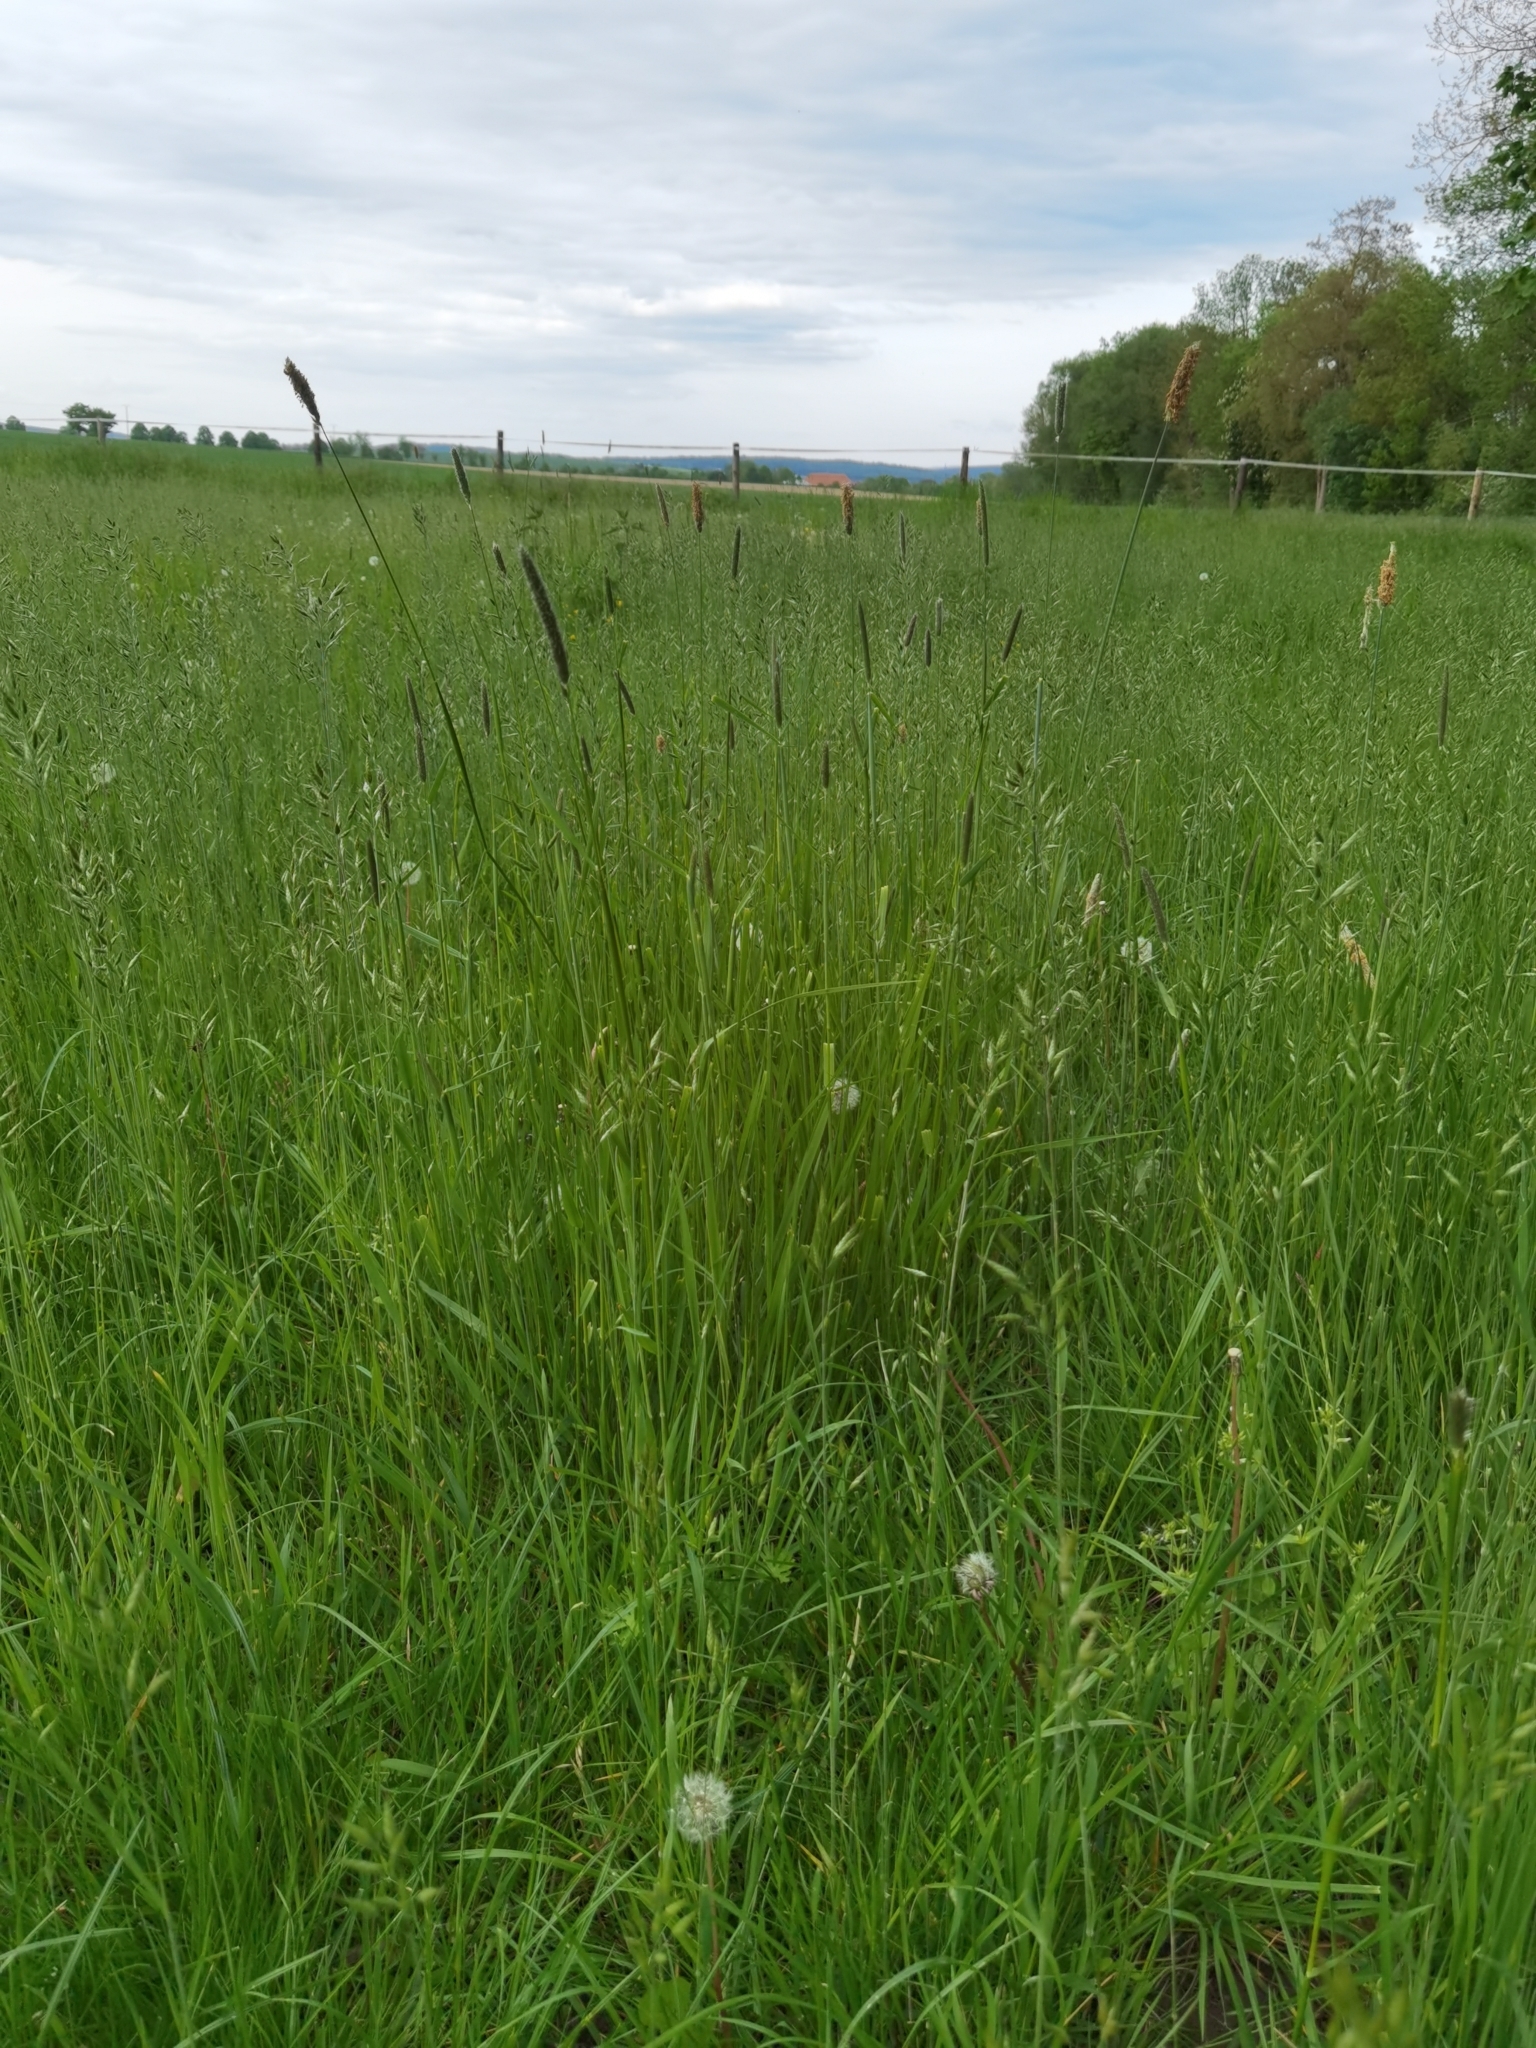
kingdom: Plantae
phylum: Tracheophyta
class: Liliopsida
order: Poales
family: Poaceae
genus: Alopecurus
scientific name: Alopecurus pratensis
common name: Meadow foxtail
